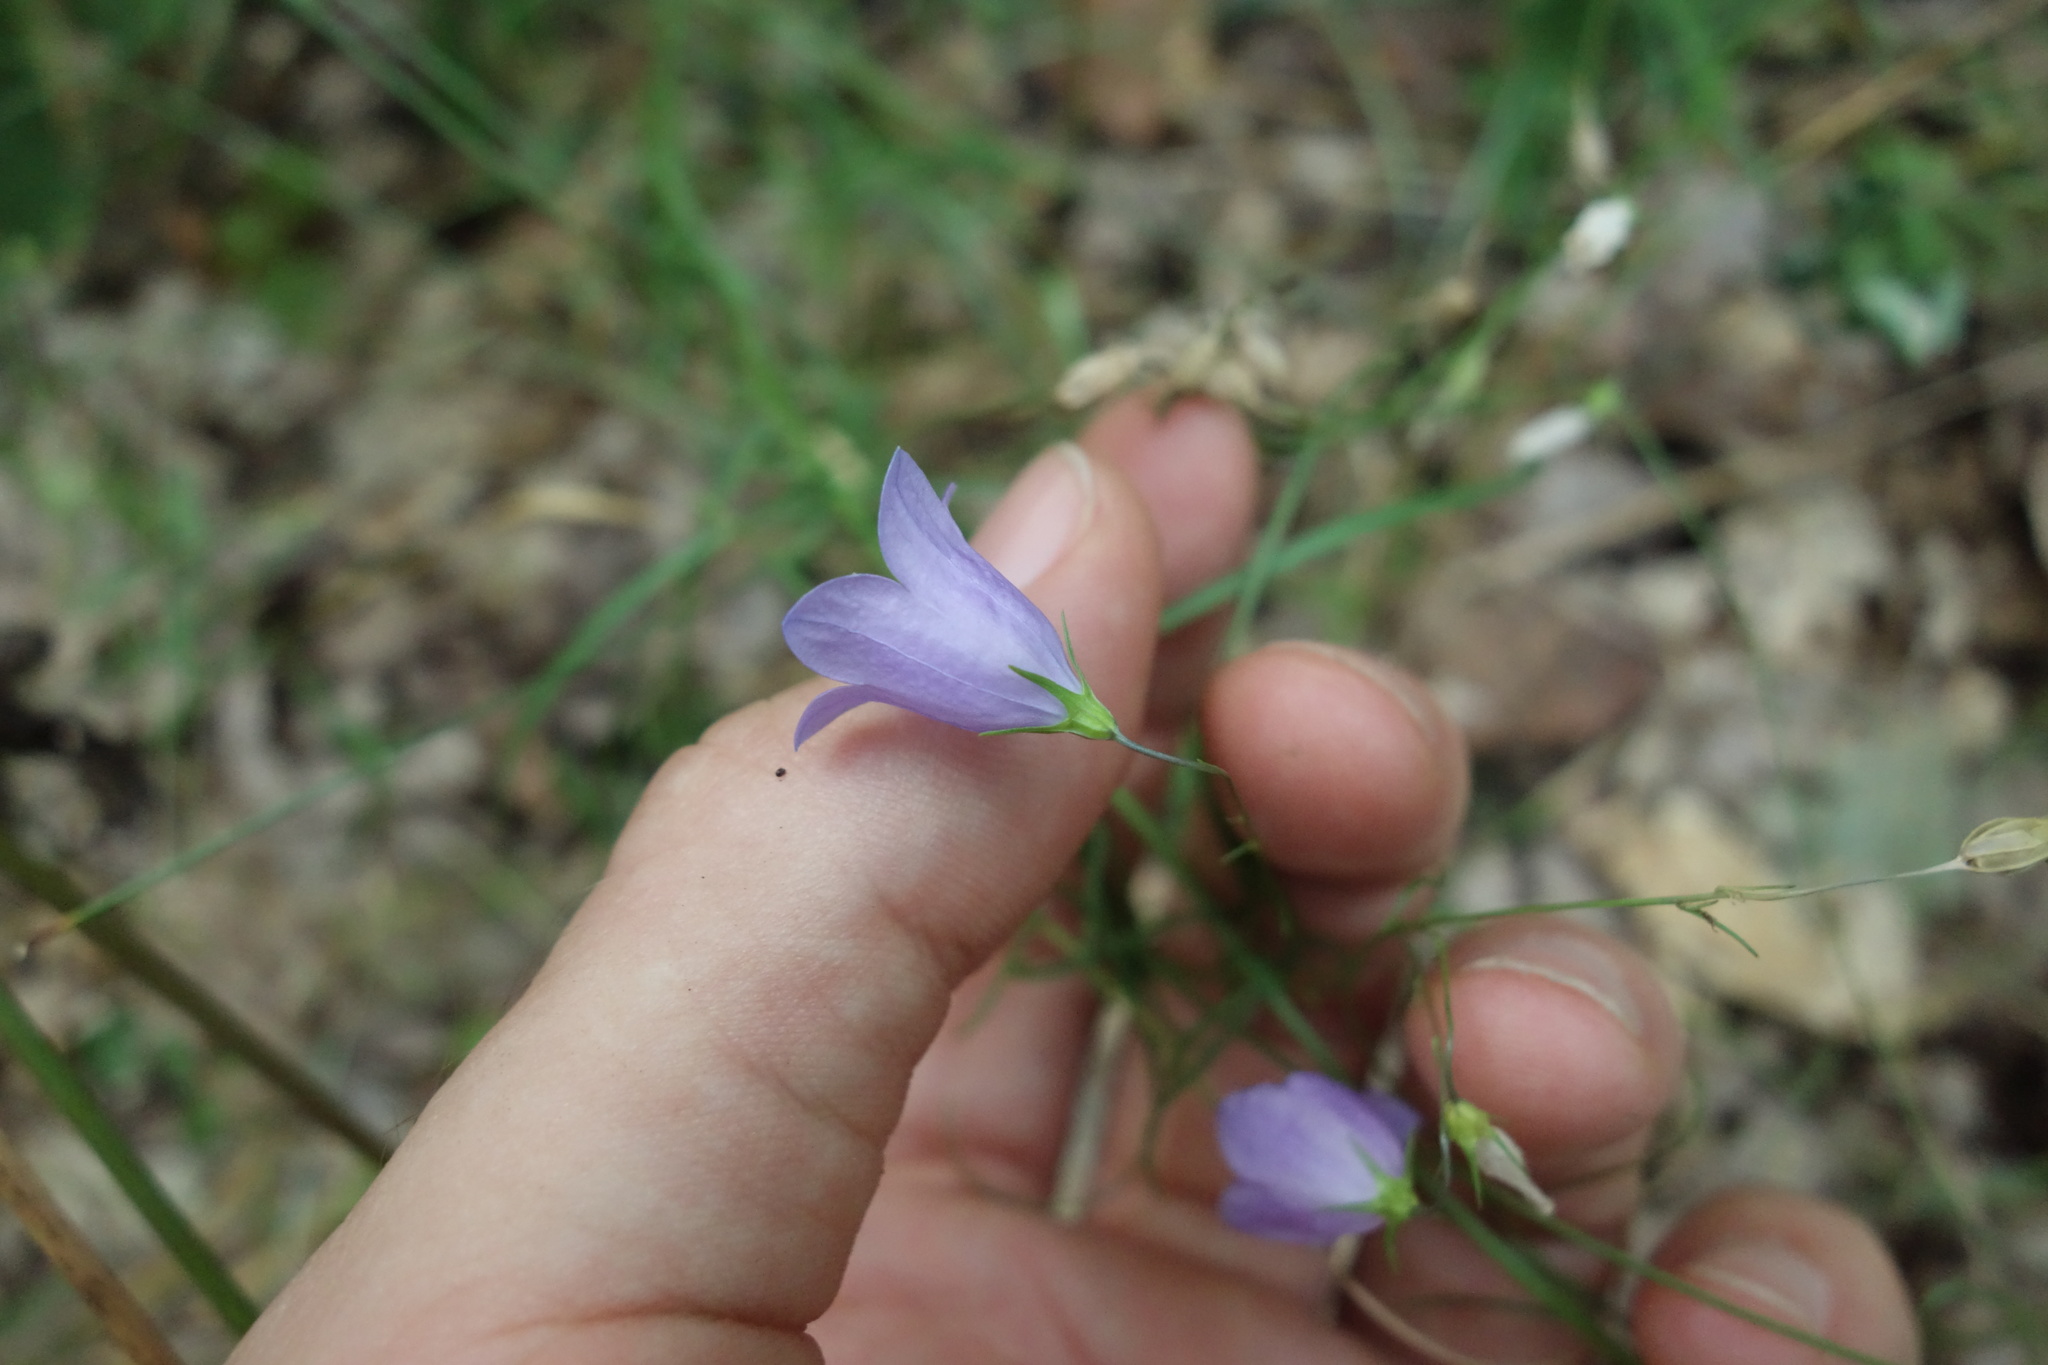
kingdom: Plantae
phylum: Tracheophyta
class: Magnoliopsida
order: Asterales
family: Campanulaceae
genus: Campanula
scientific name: Campanula rotundifolia
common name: Harebell
